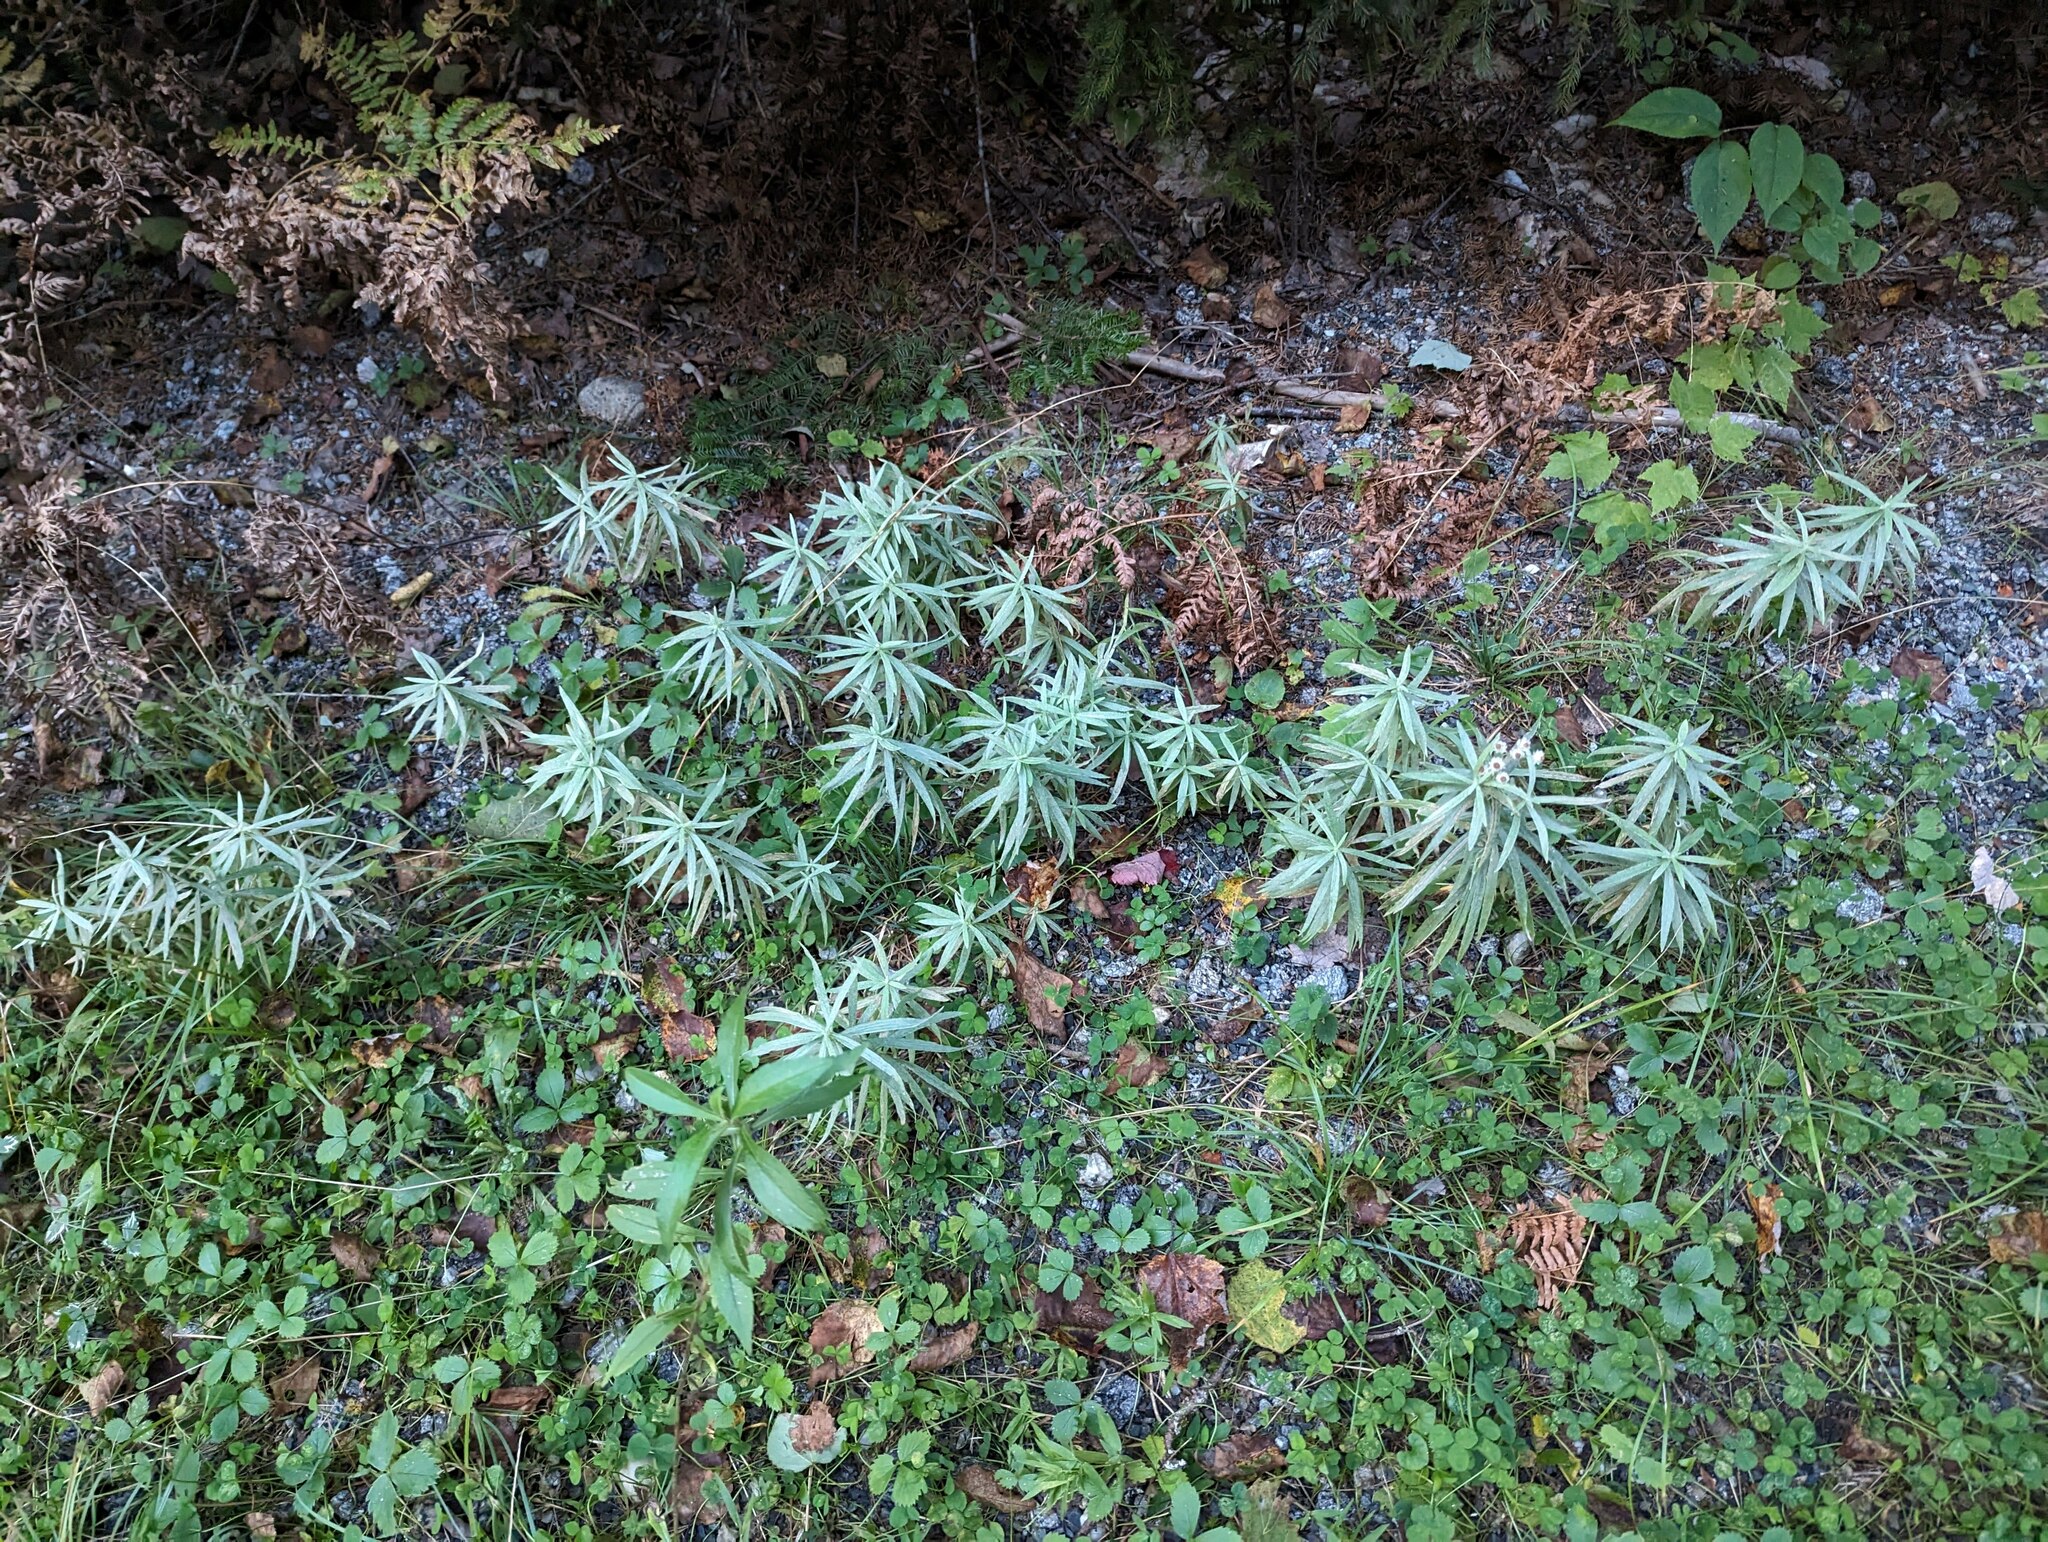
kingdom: Plantae
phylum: Tracheophyta
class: Magnoliopsida
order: Asterales
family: Asteraceae
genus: Anaphalis
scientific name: Anaphalis margaritacea
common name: Pearly everlasting
